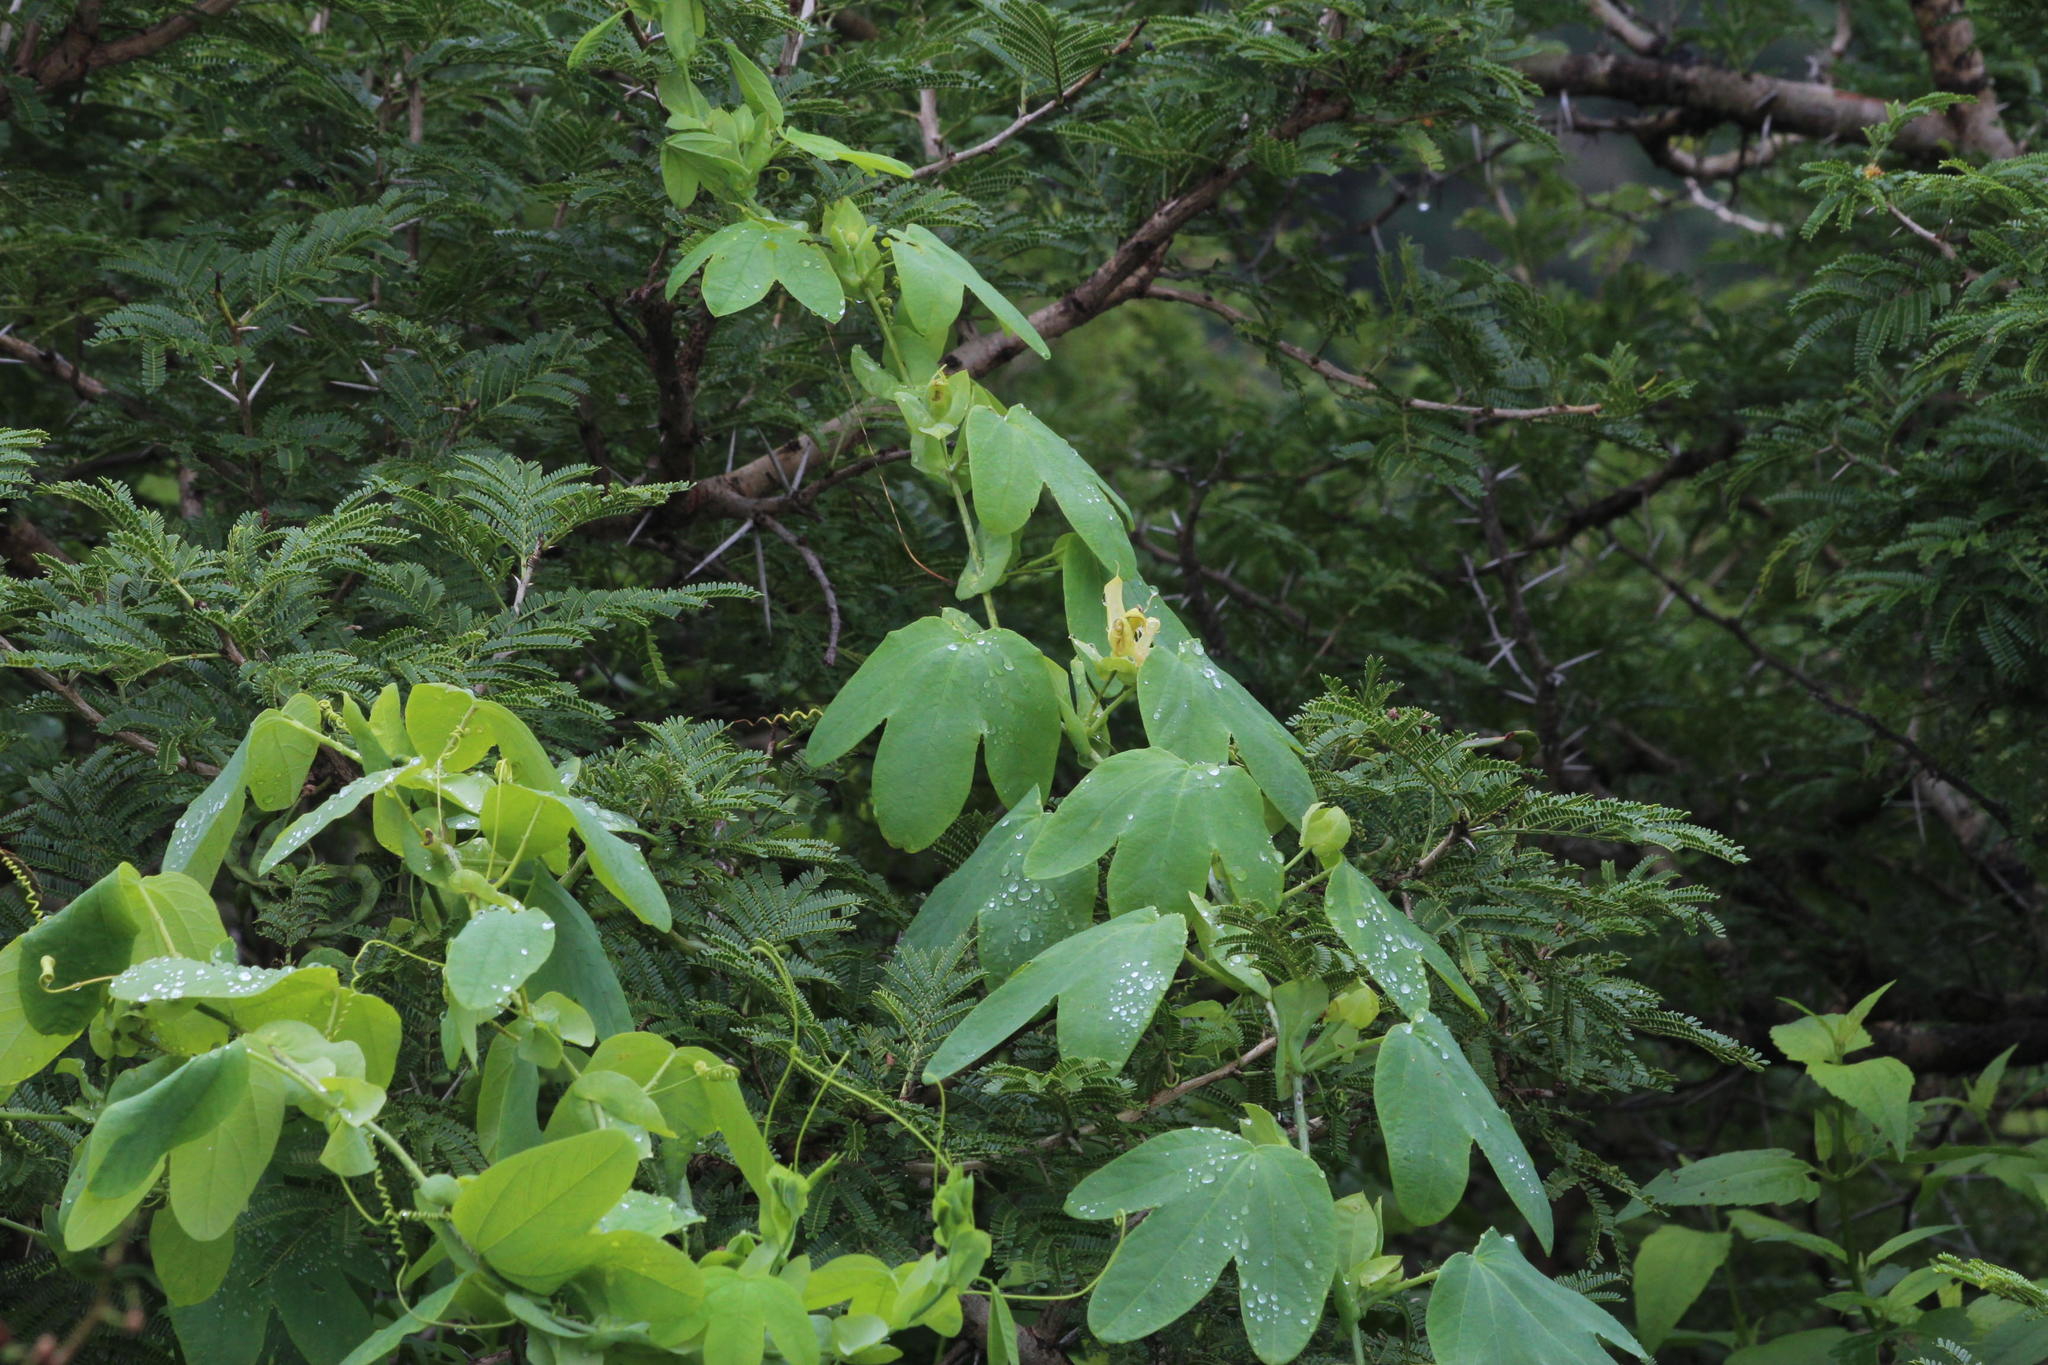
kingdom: Plantae
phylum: Tracheophyta
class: Magnoliopsida
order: Malpighiales
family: Passifloraceae
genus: Passiflora
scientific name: Passiflora subpeltata
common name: White passionflower
